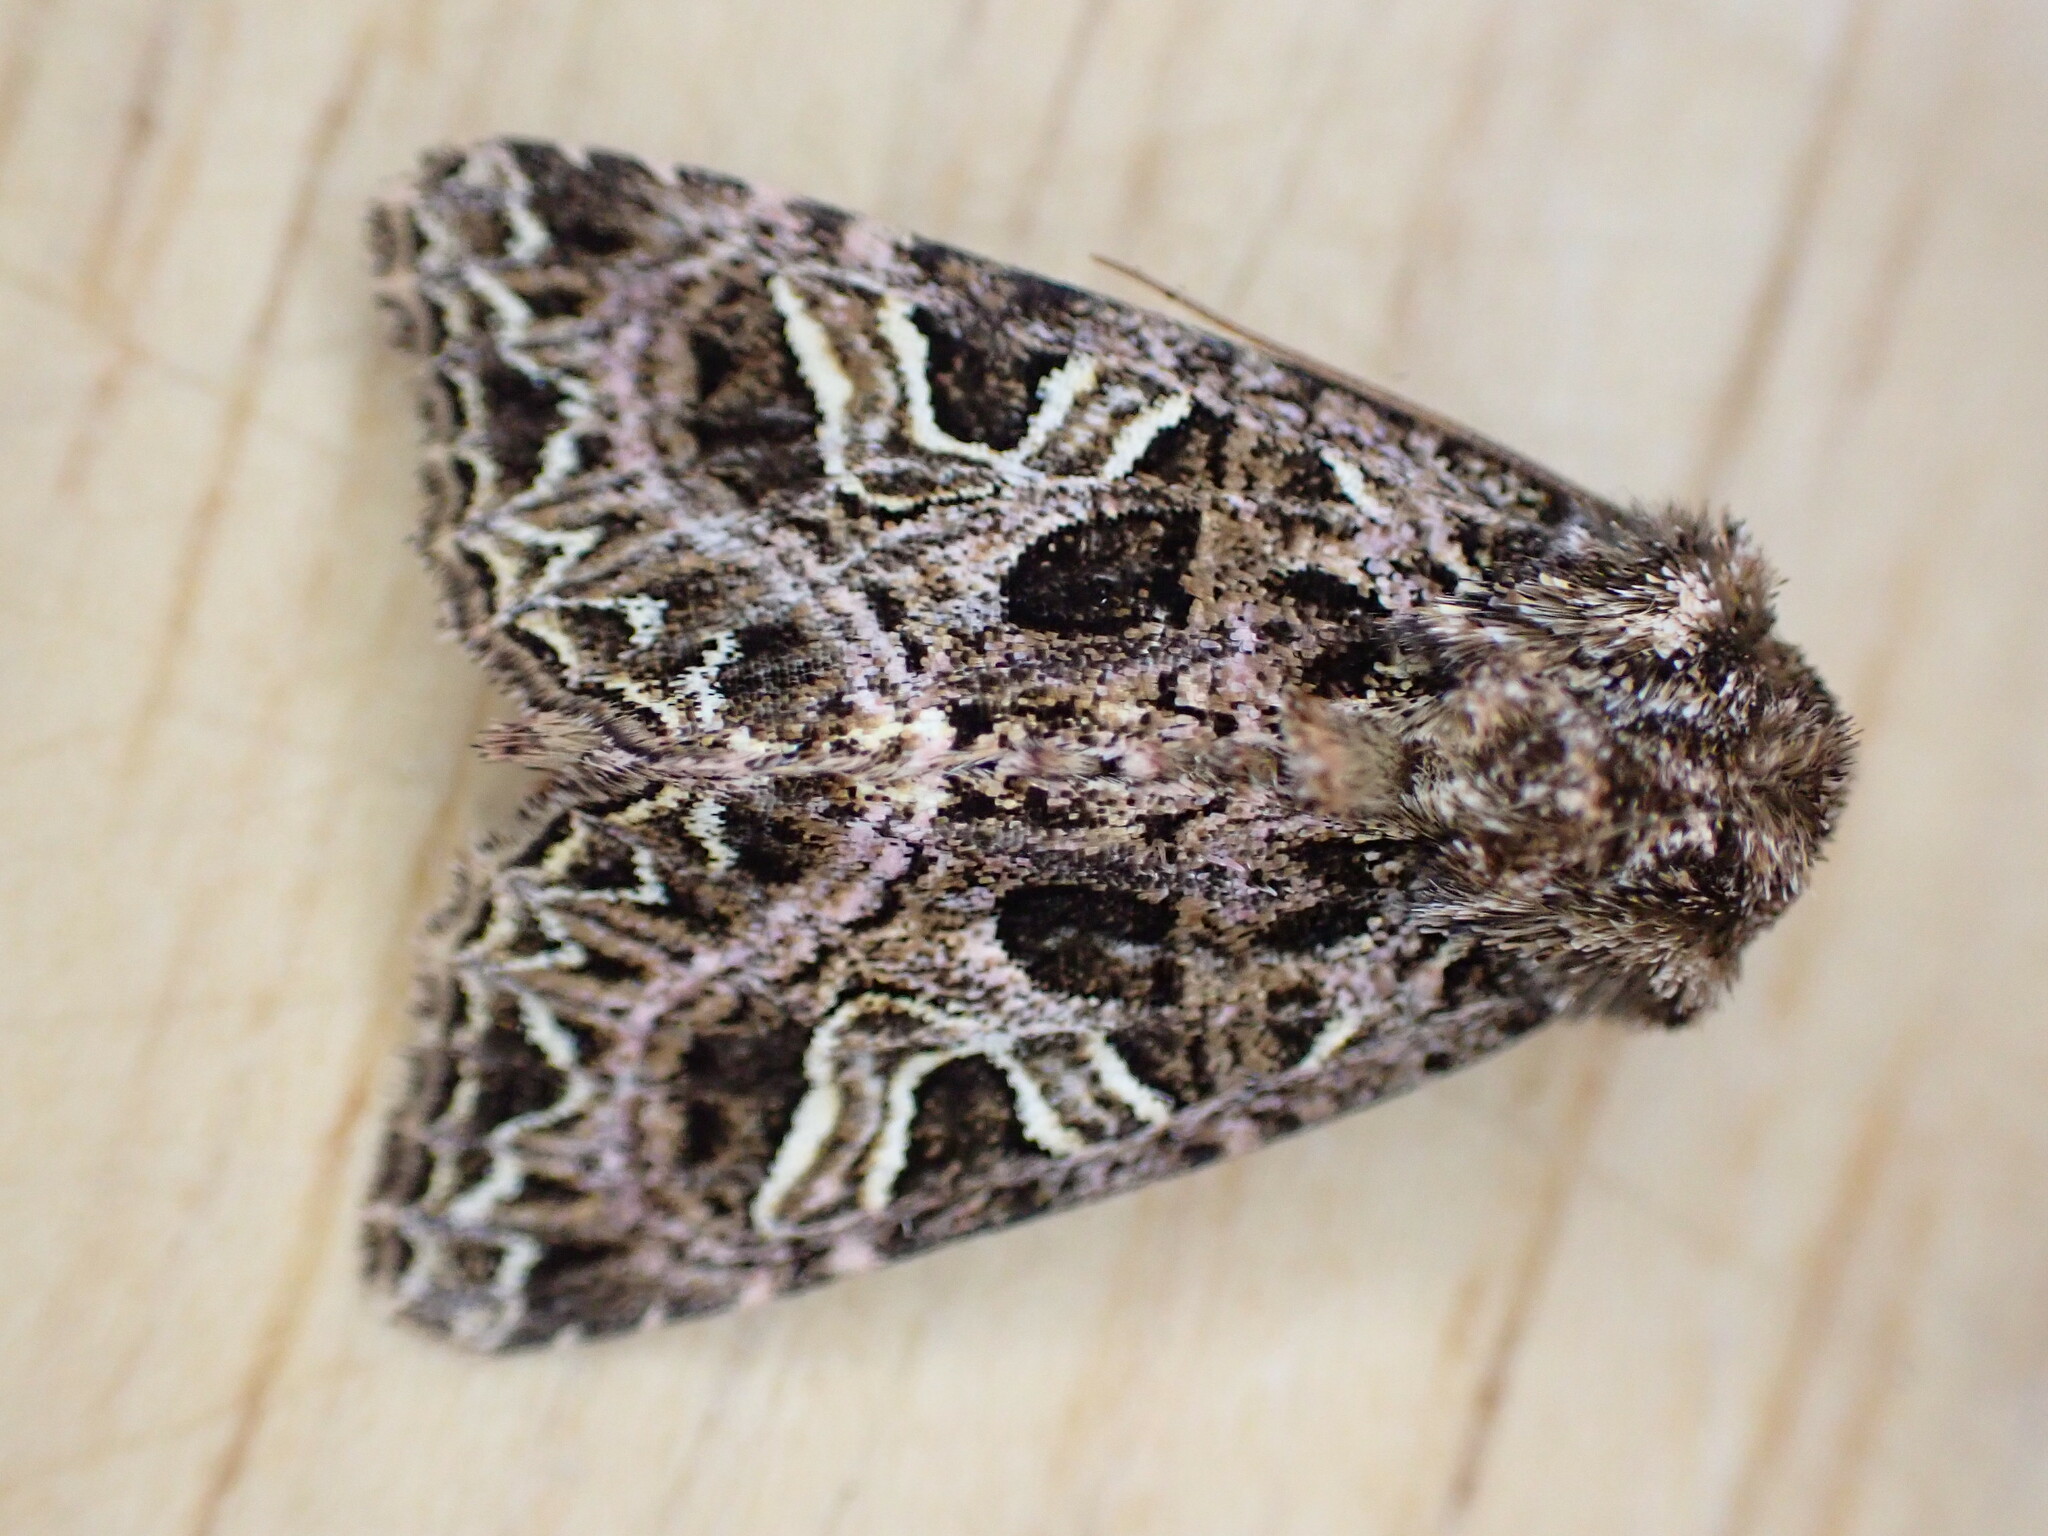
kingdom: Animalia
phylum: Arthropoda
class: Insecta
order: Lepidoptera
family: Noctuidae
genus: Sideridis
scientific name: Sideridis rivularis
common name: Campion
